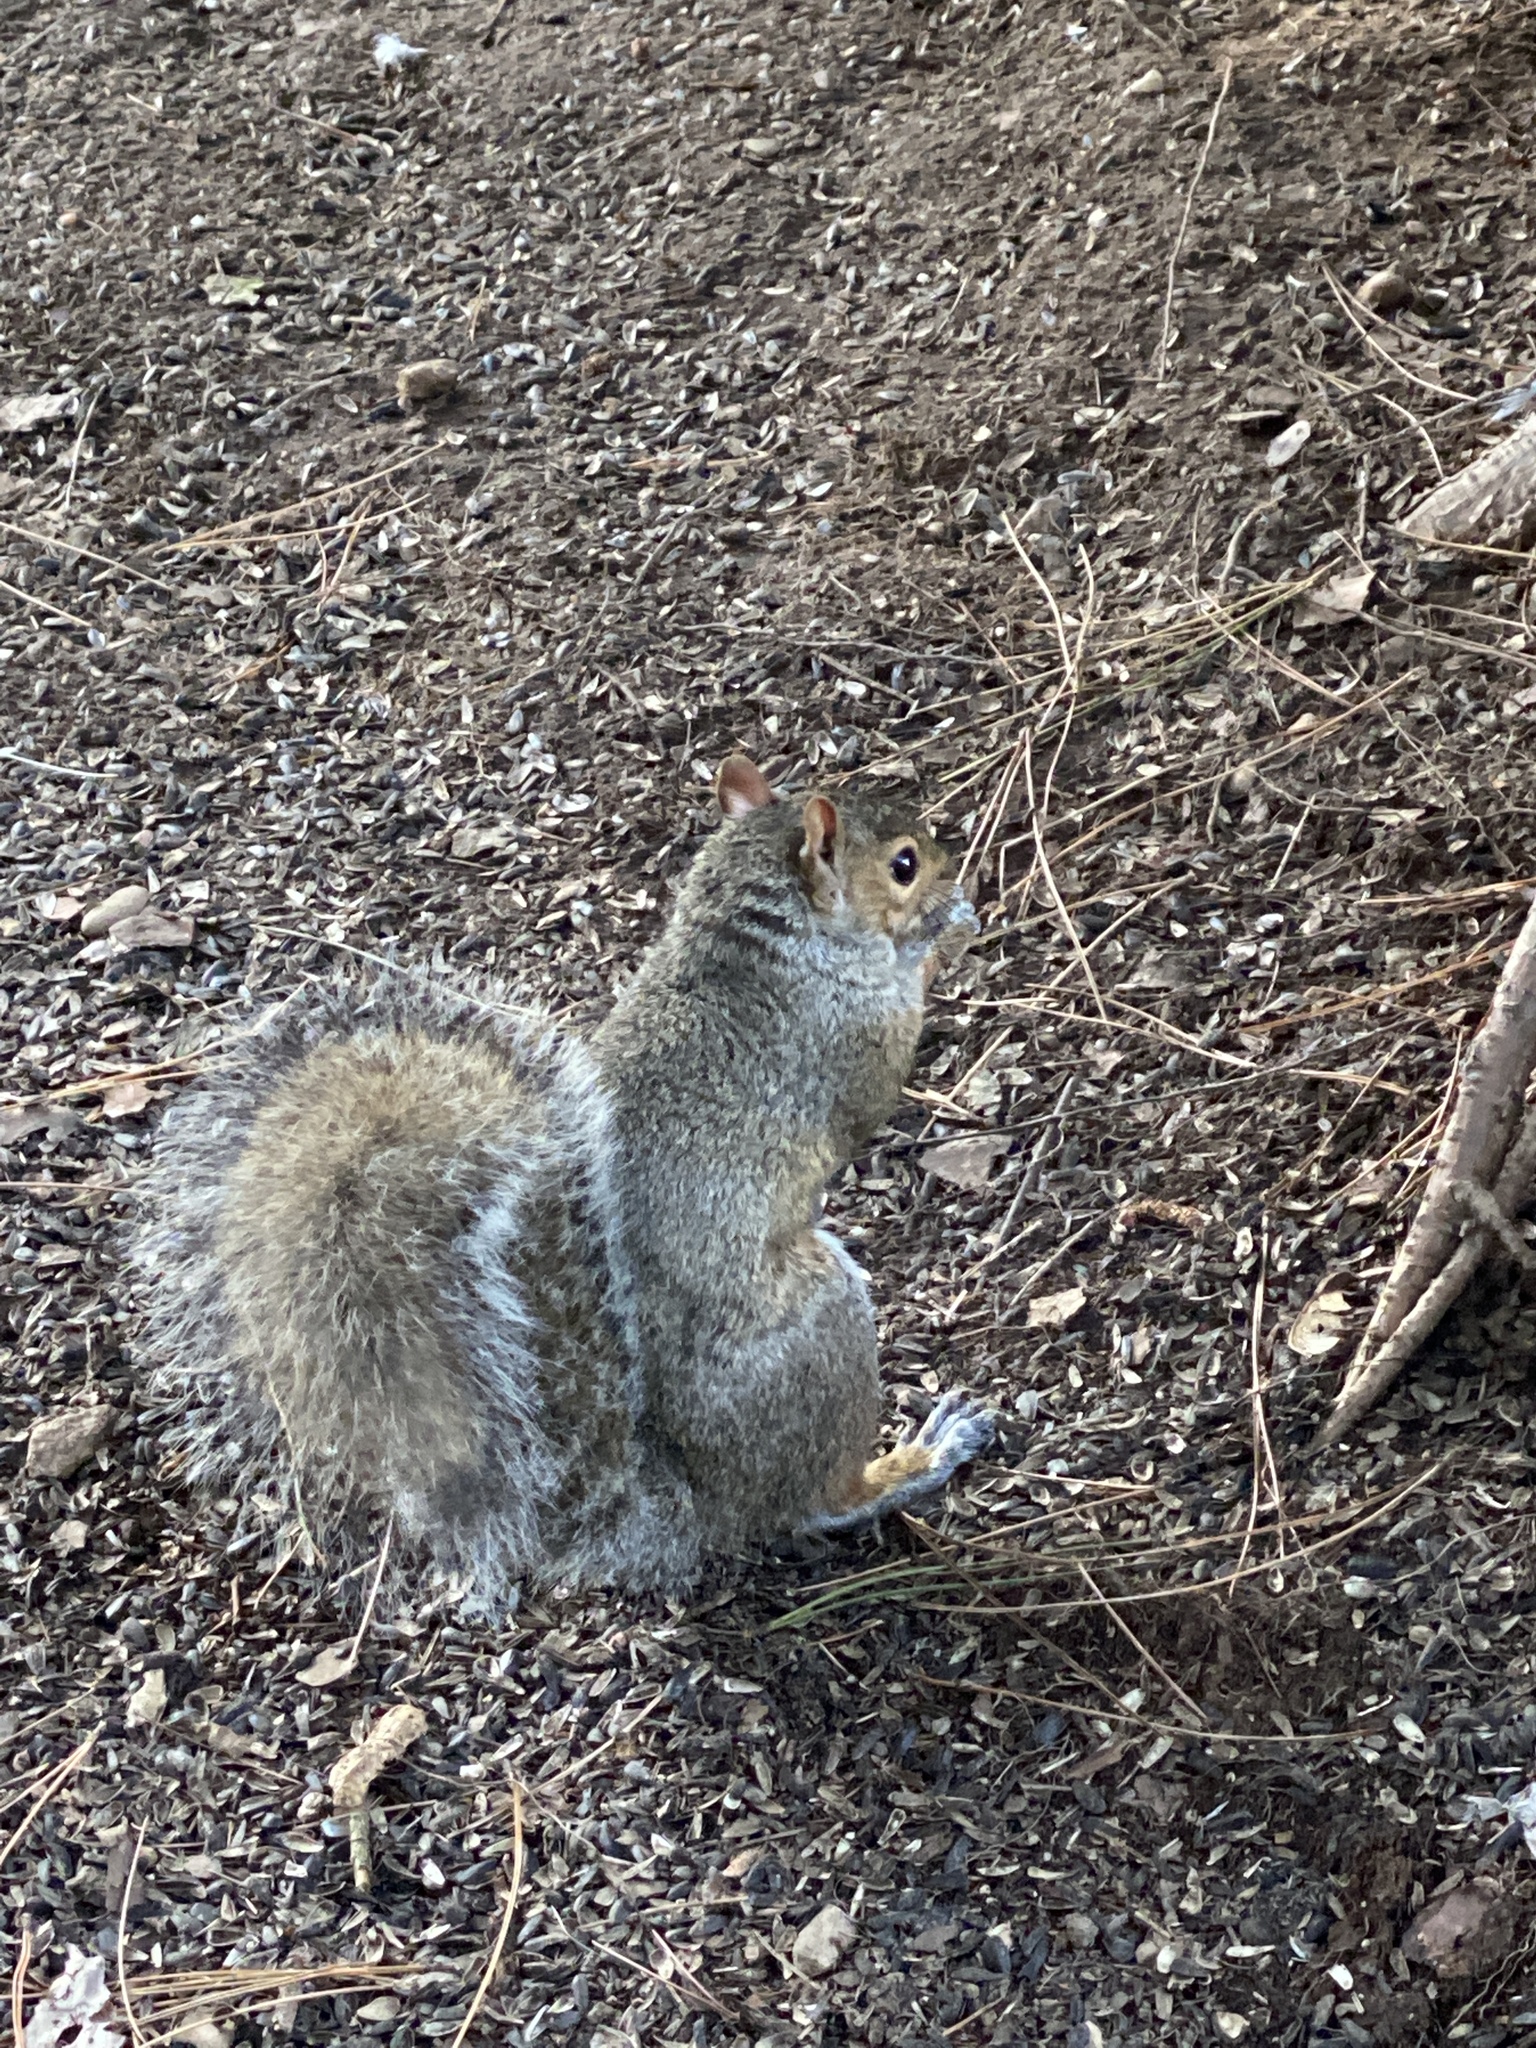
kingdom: Animalia
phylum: Chordata
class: Mammalia
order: Rodentia
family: Sciuridae
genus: Sciurus
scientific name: Sciurus carolinensis
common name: Eastern gray squirrel
